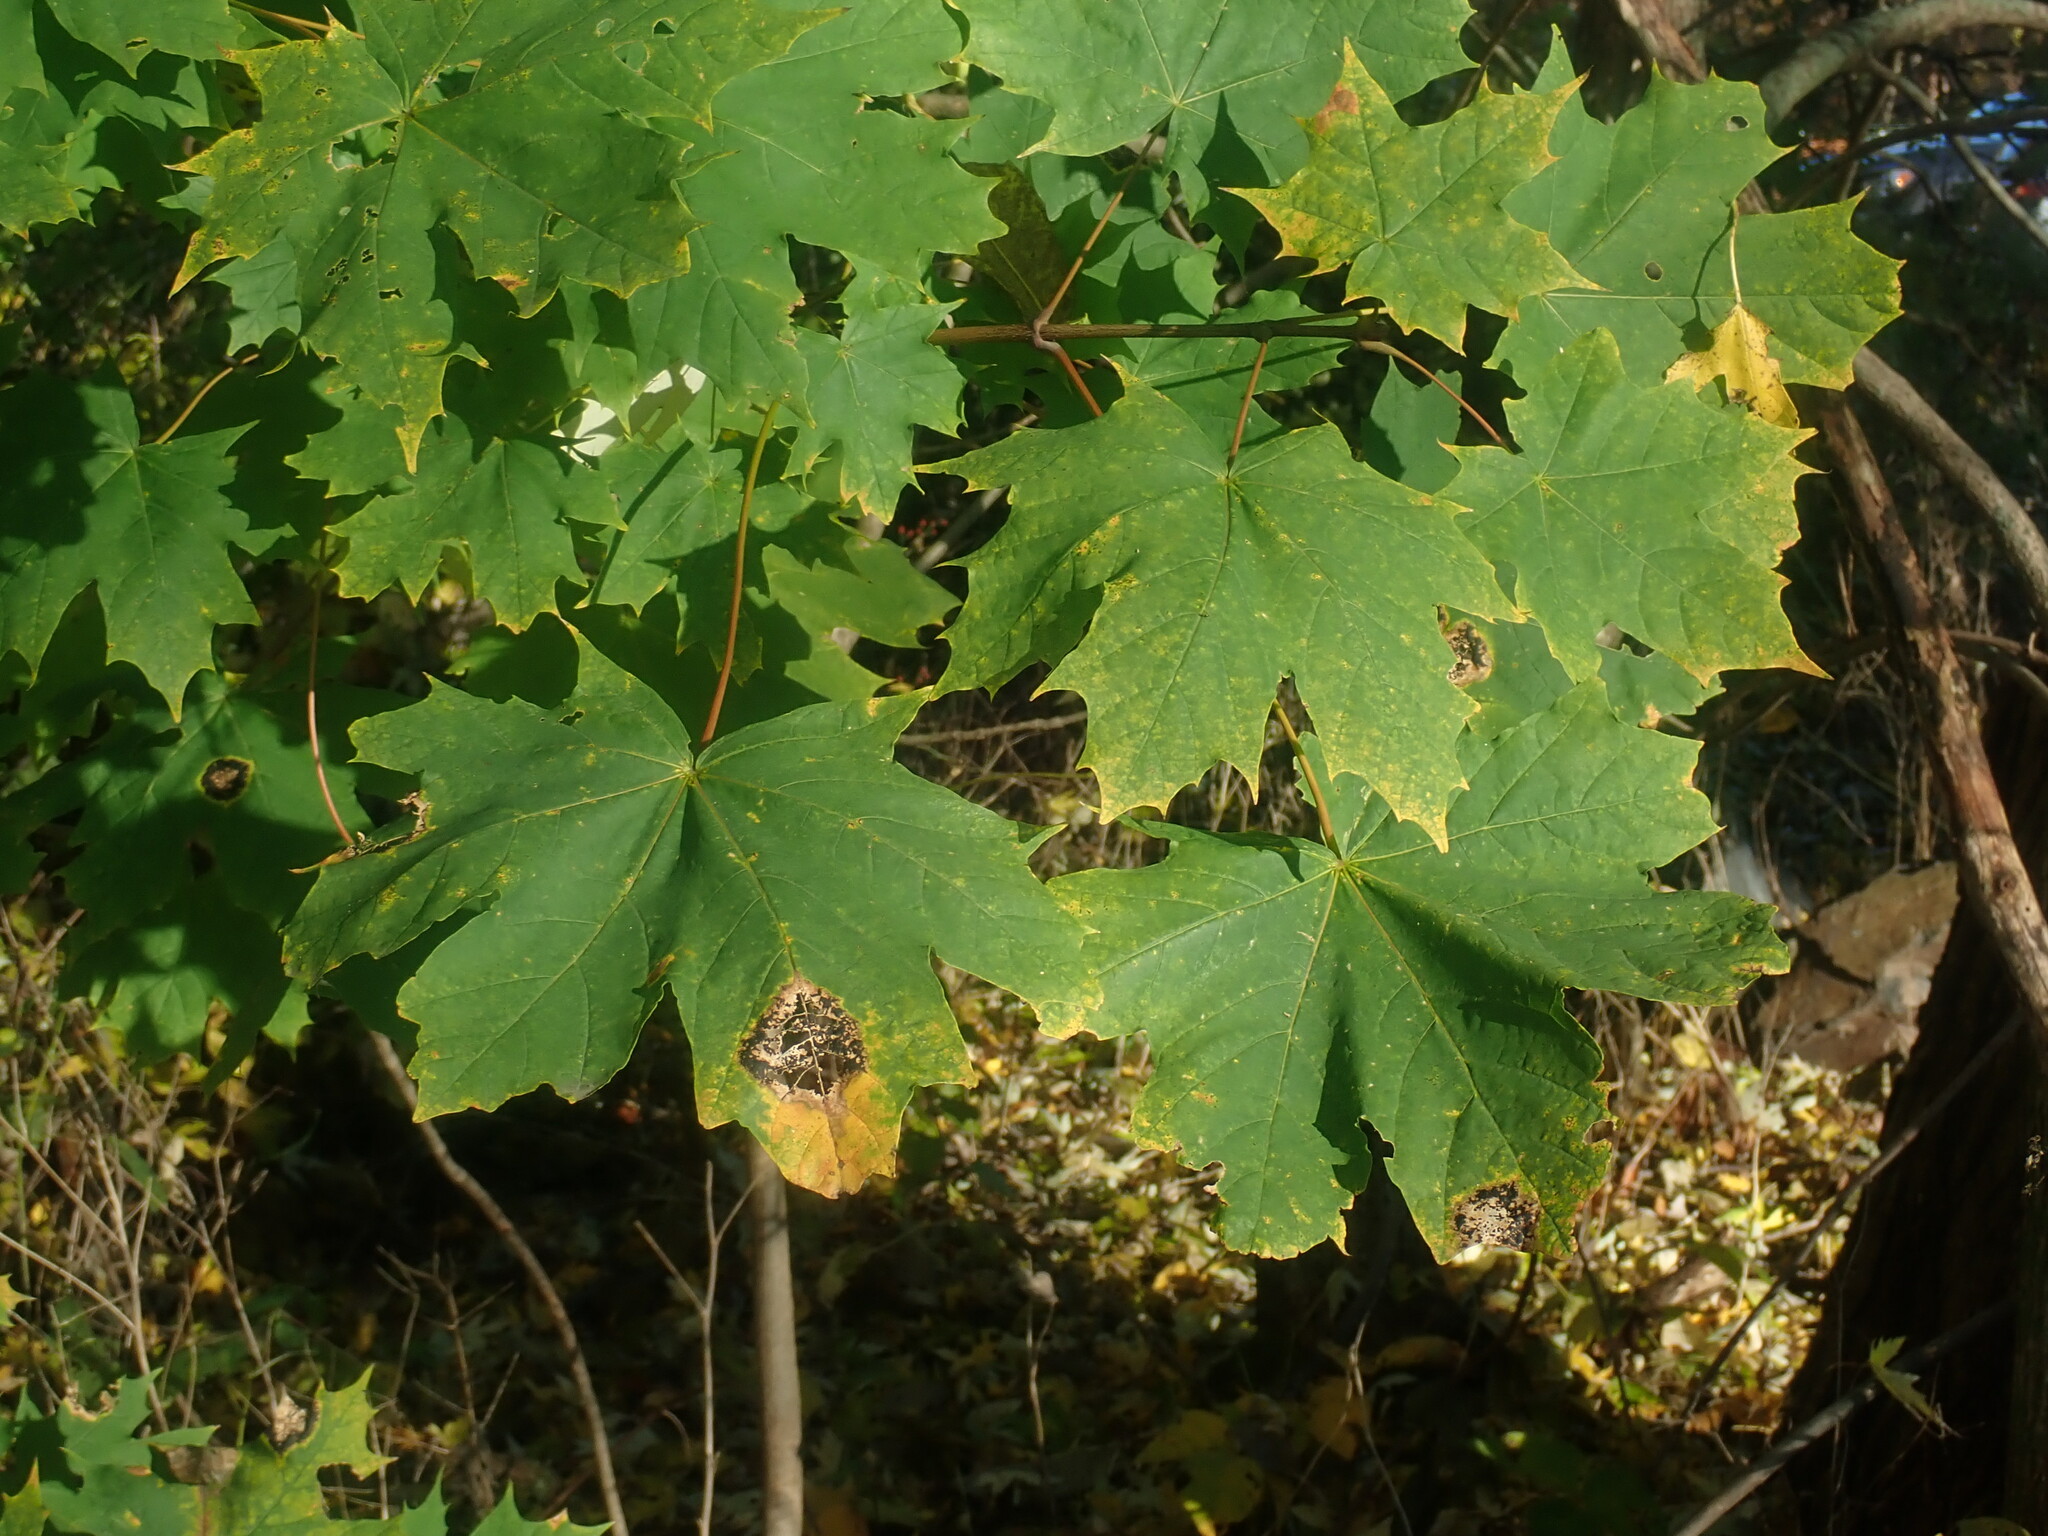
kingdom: Plantae
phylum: Tracheophyta
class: Magnoliopsida
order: Sapindales
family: Sapindaceae
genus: Acer
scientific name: Acer platanoides
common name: Norway maple
